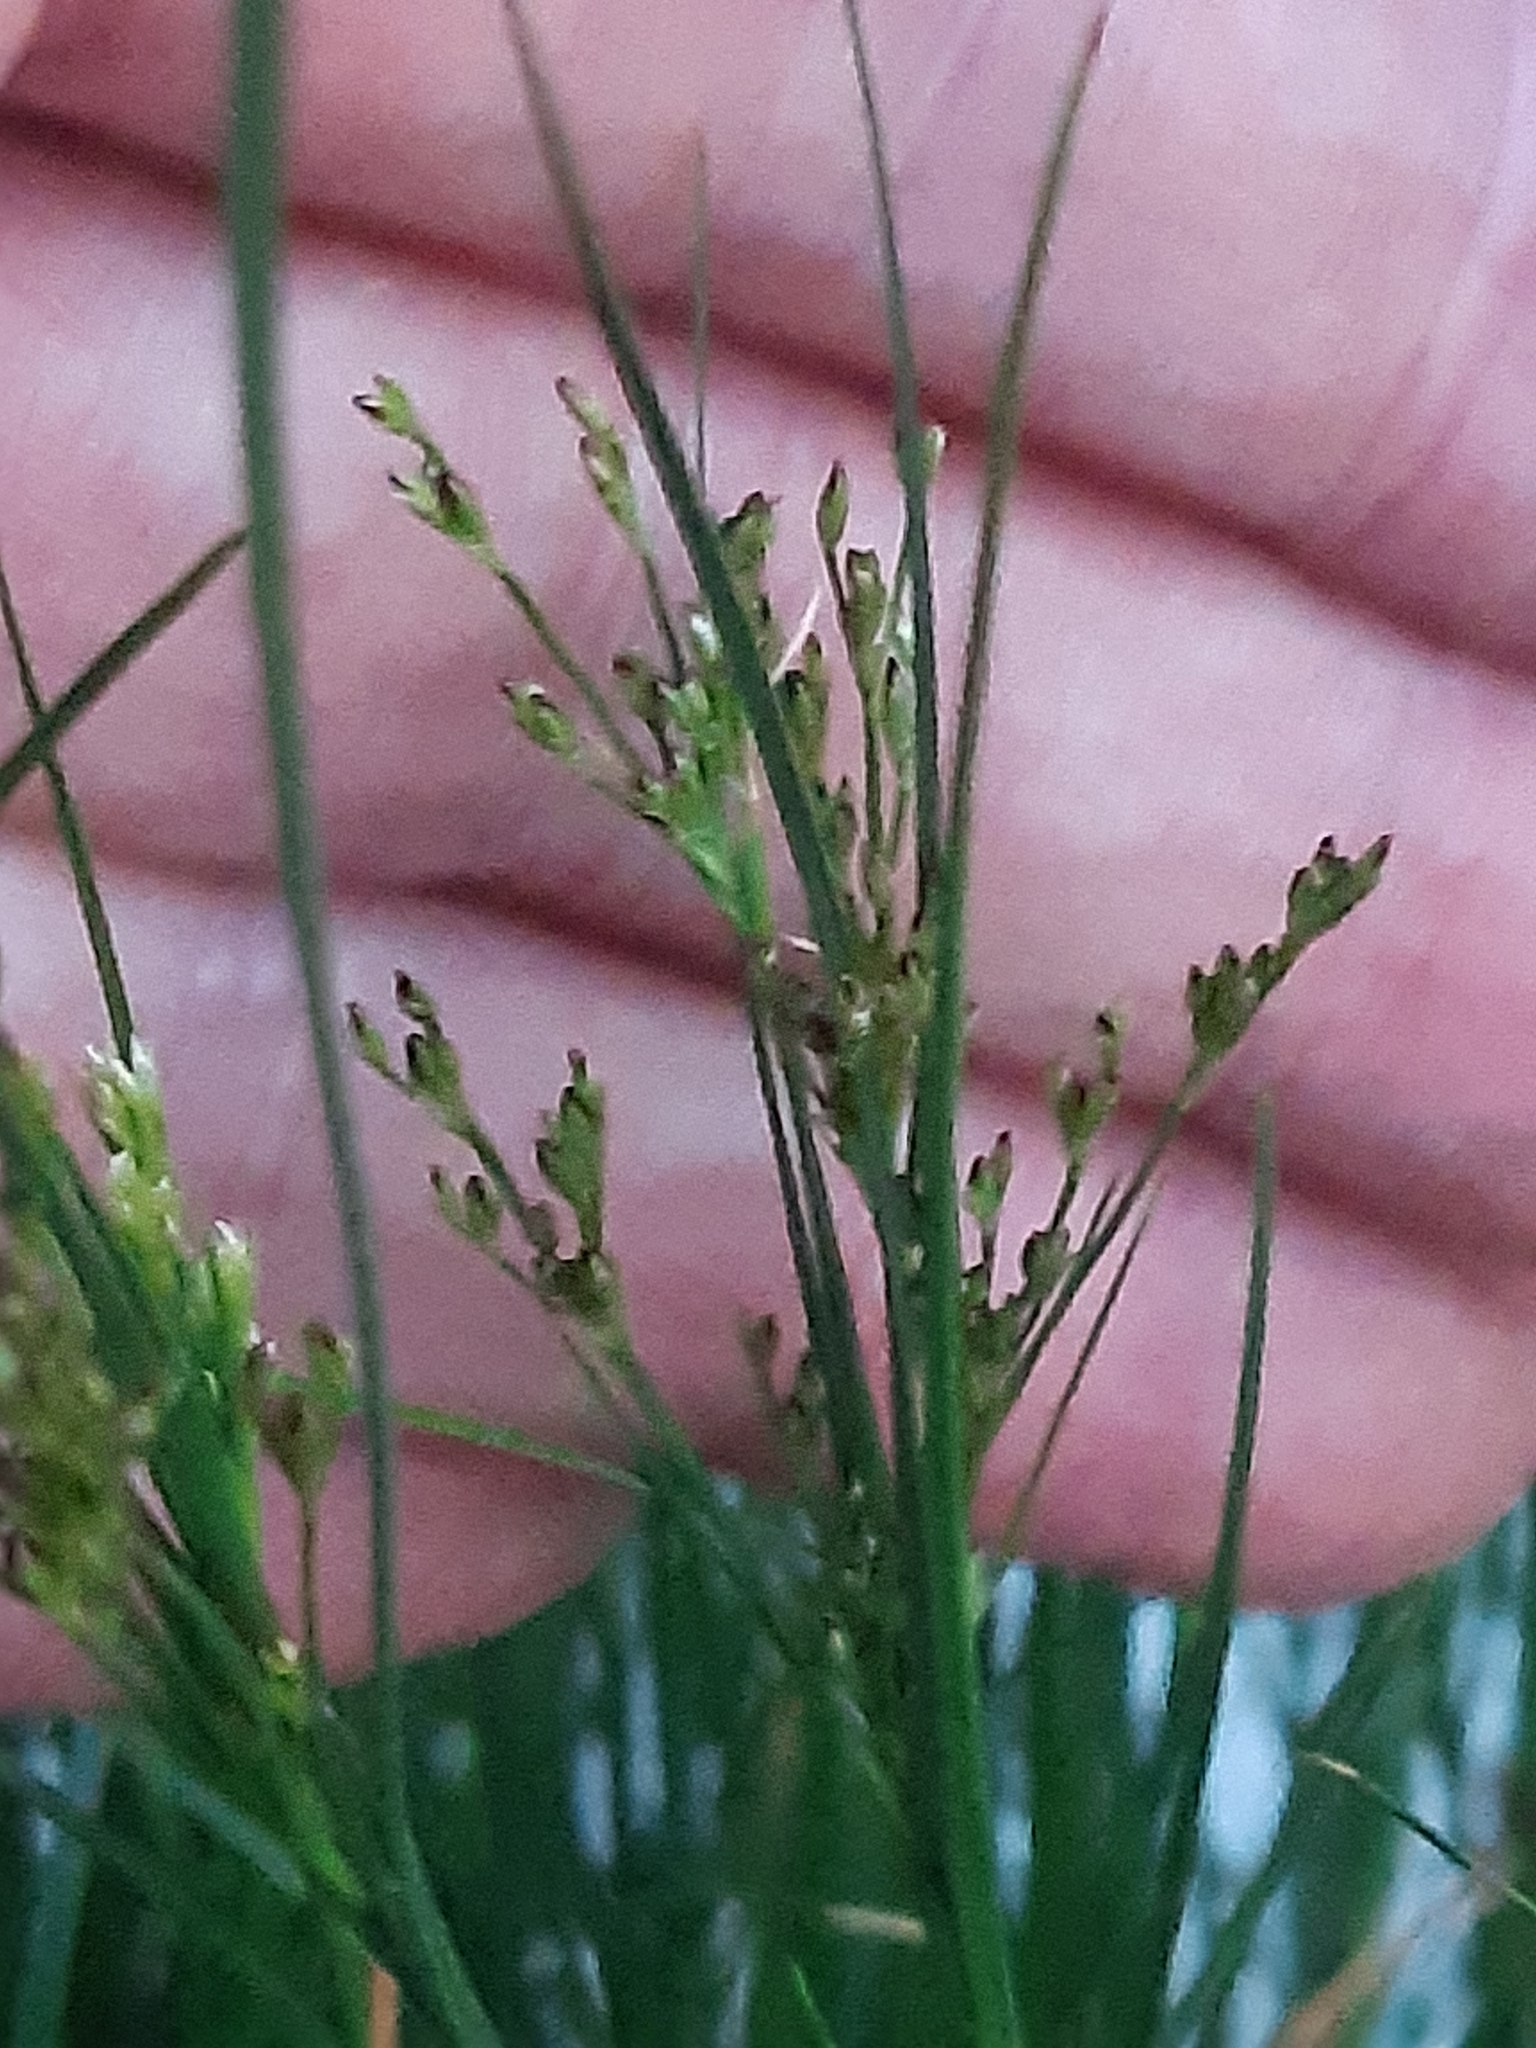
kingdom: Plantae
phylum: Tracheophyta
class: Liliopsida
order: Poales
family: Juncaceae
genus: Juncus
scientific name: Juncus compressus
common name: Round-fruited rush
